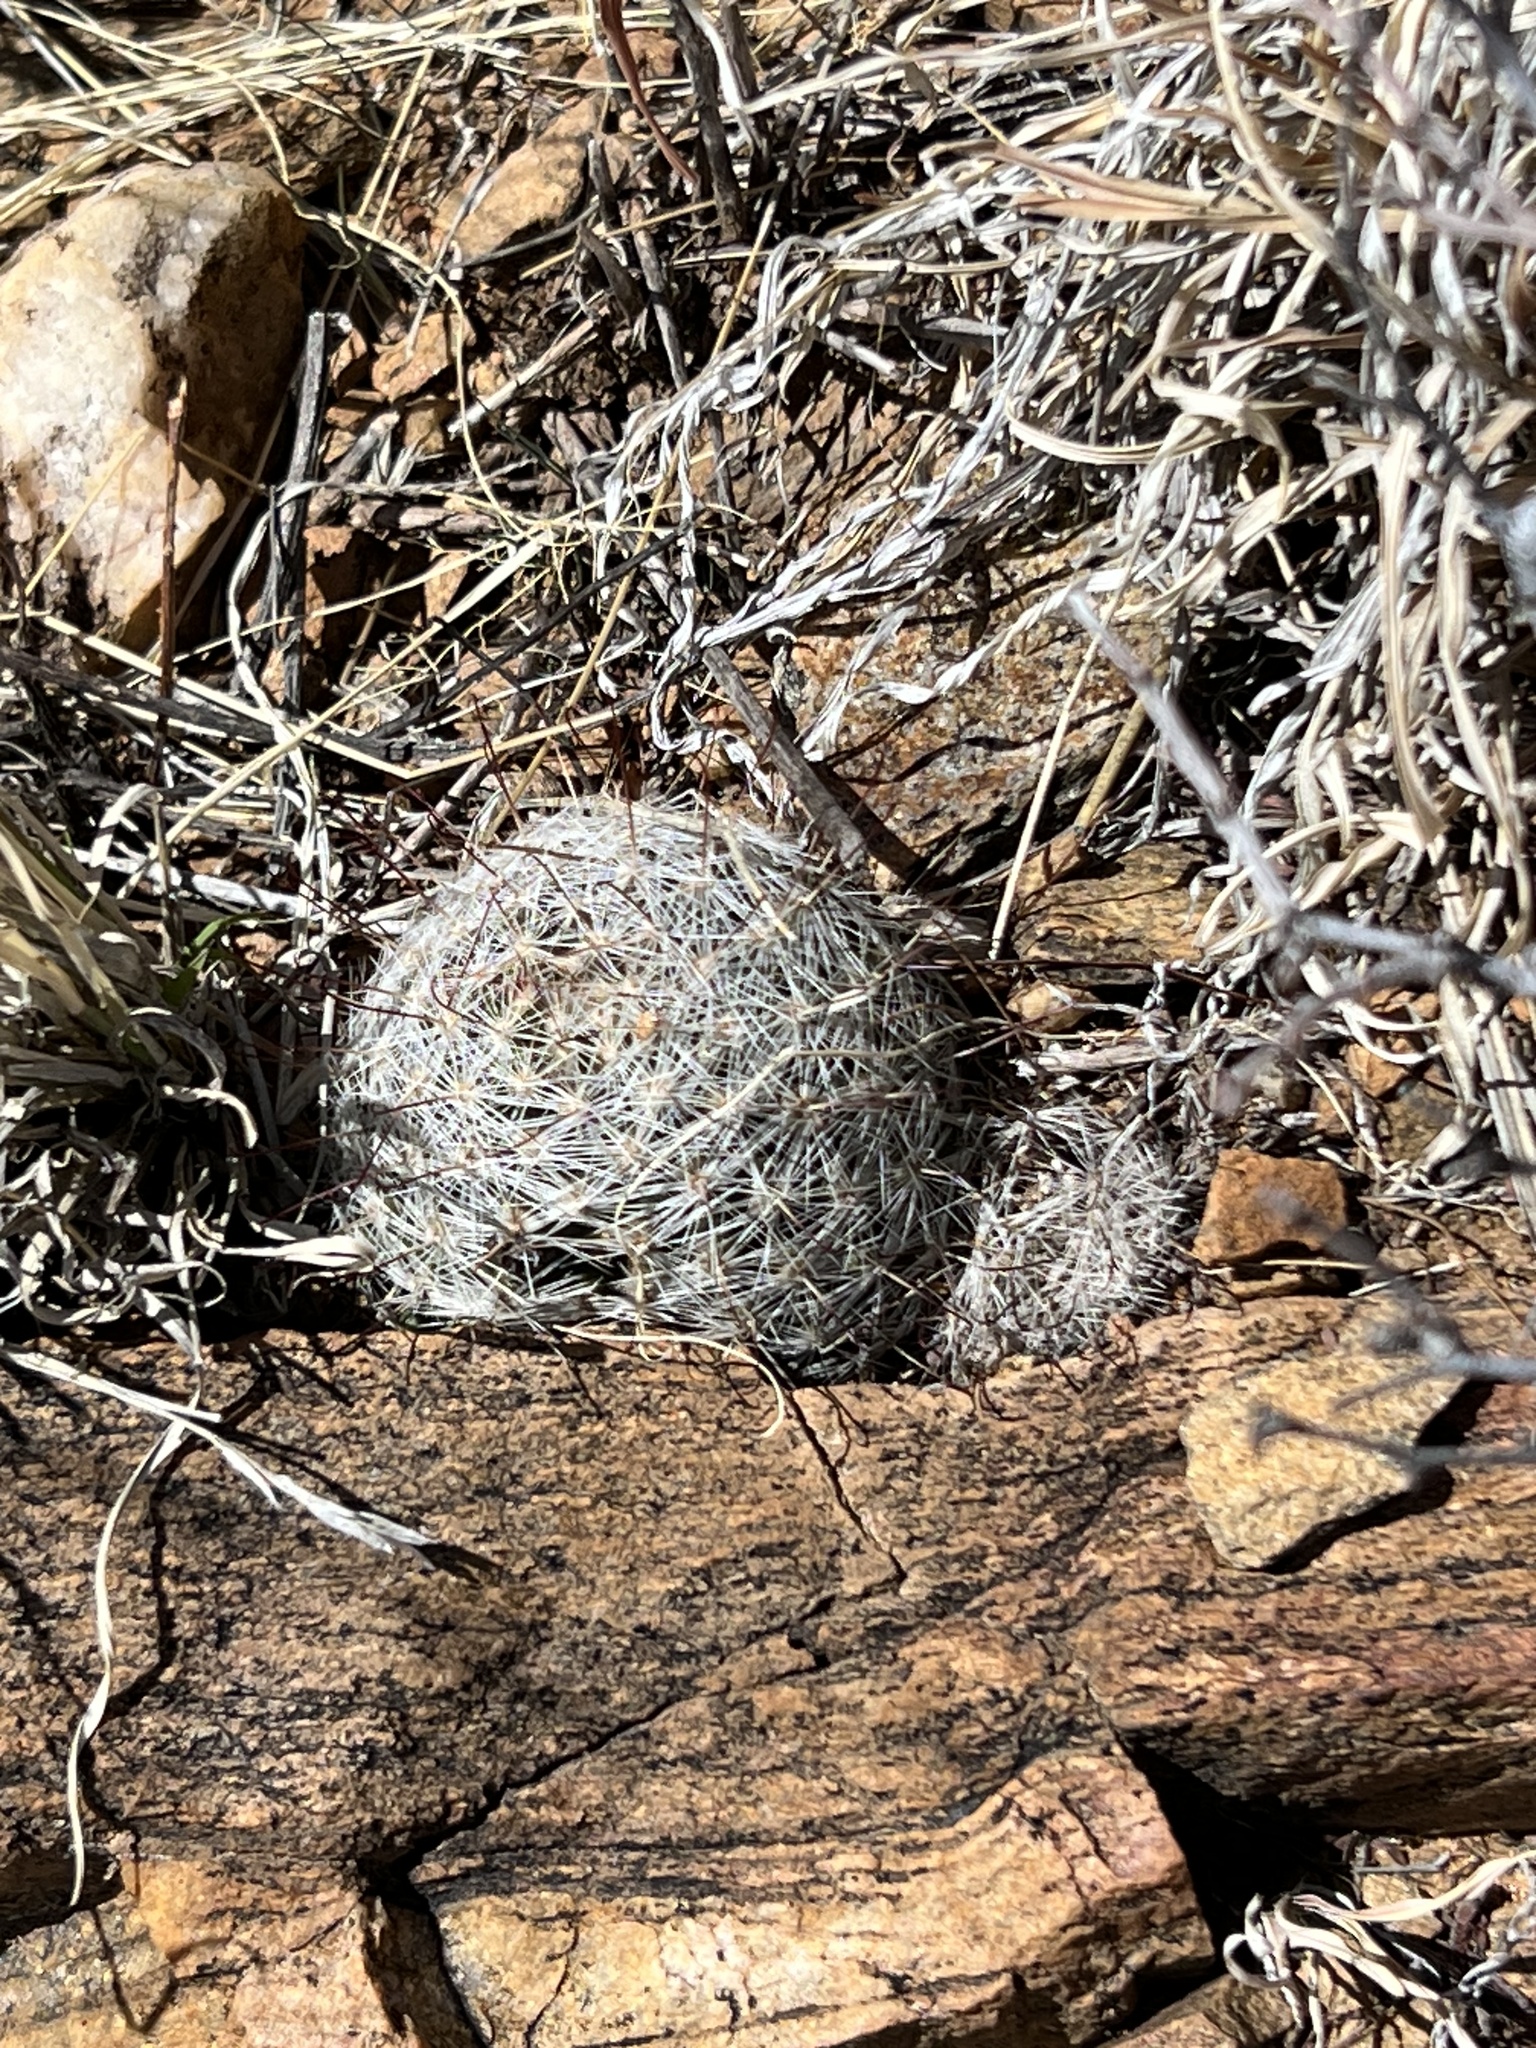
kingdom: Plantae
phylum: Tracheophyta
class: Magnoliopsida
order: Caryophyllales
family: Cactaceae
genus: Cochemiea
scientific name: Cochemiea grahamii
